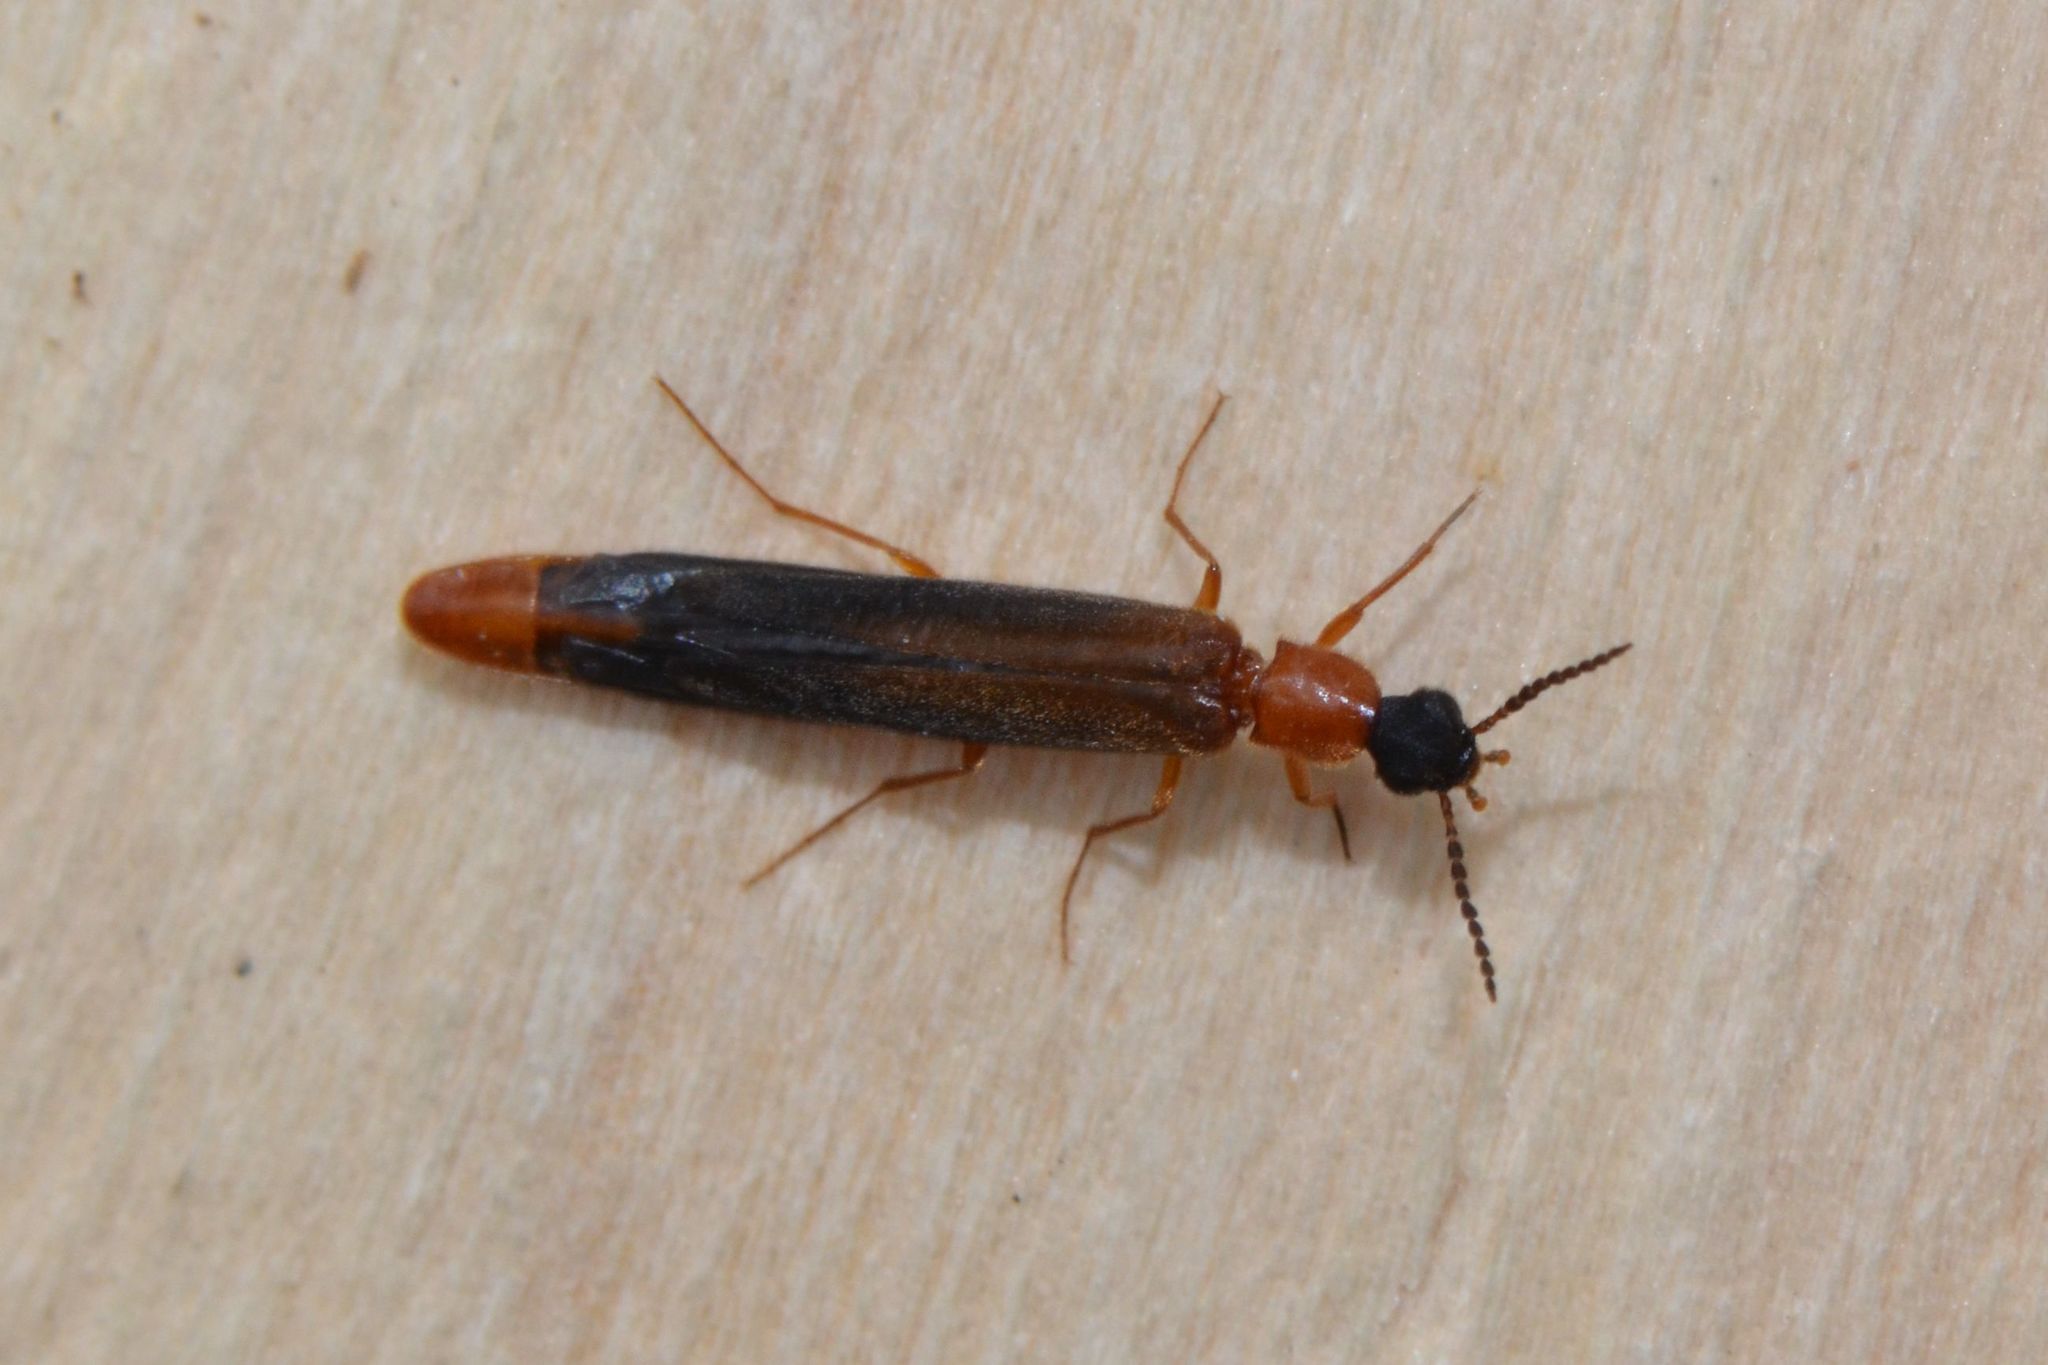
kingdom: Animalia
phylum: Arthropoda
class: Insecta
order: Coleoptera
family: Lymexylidae
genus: Lymexylon
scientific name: Lymexylon navale
